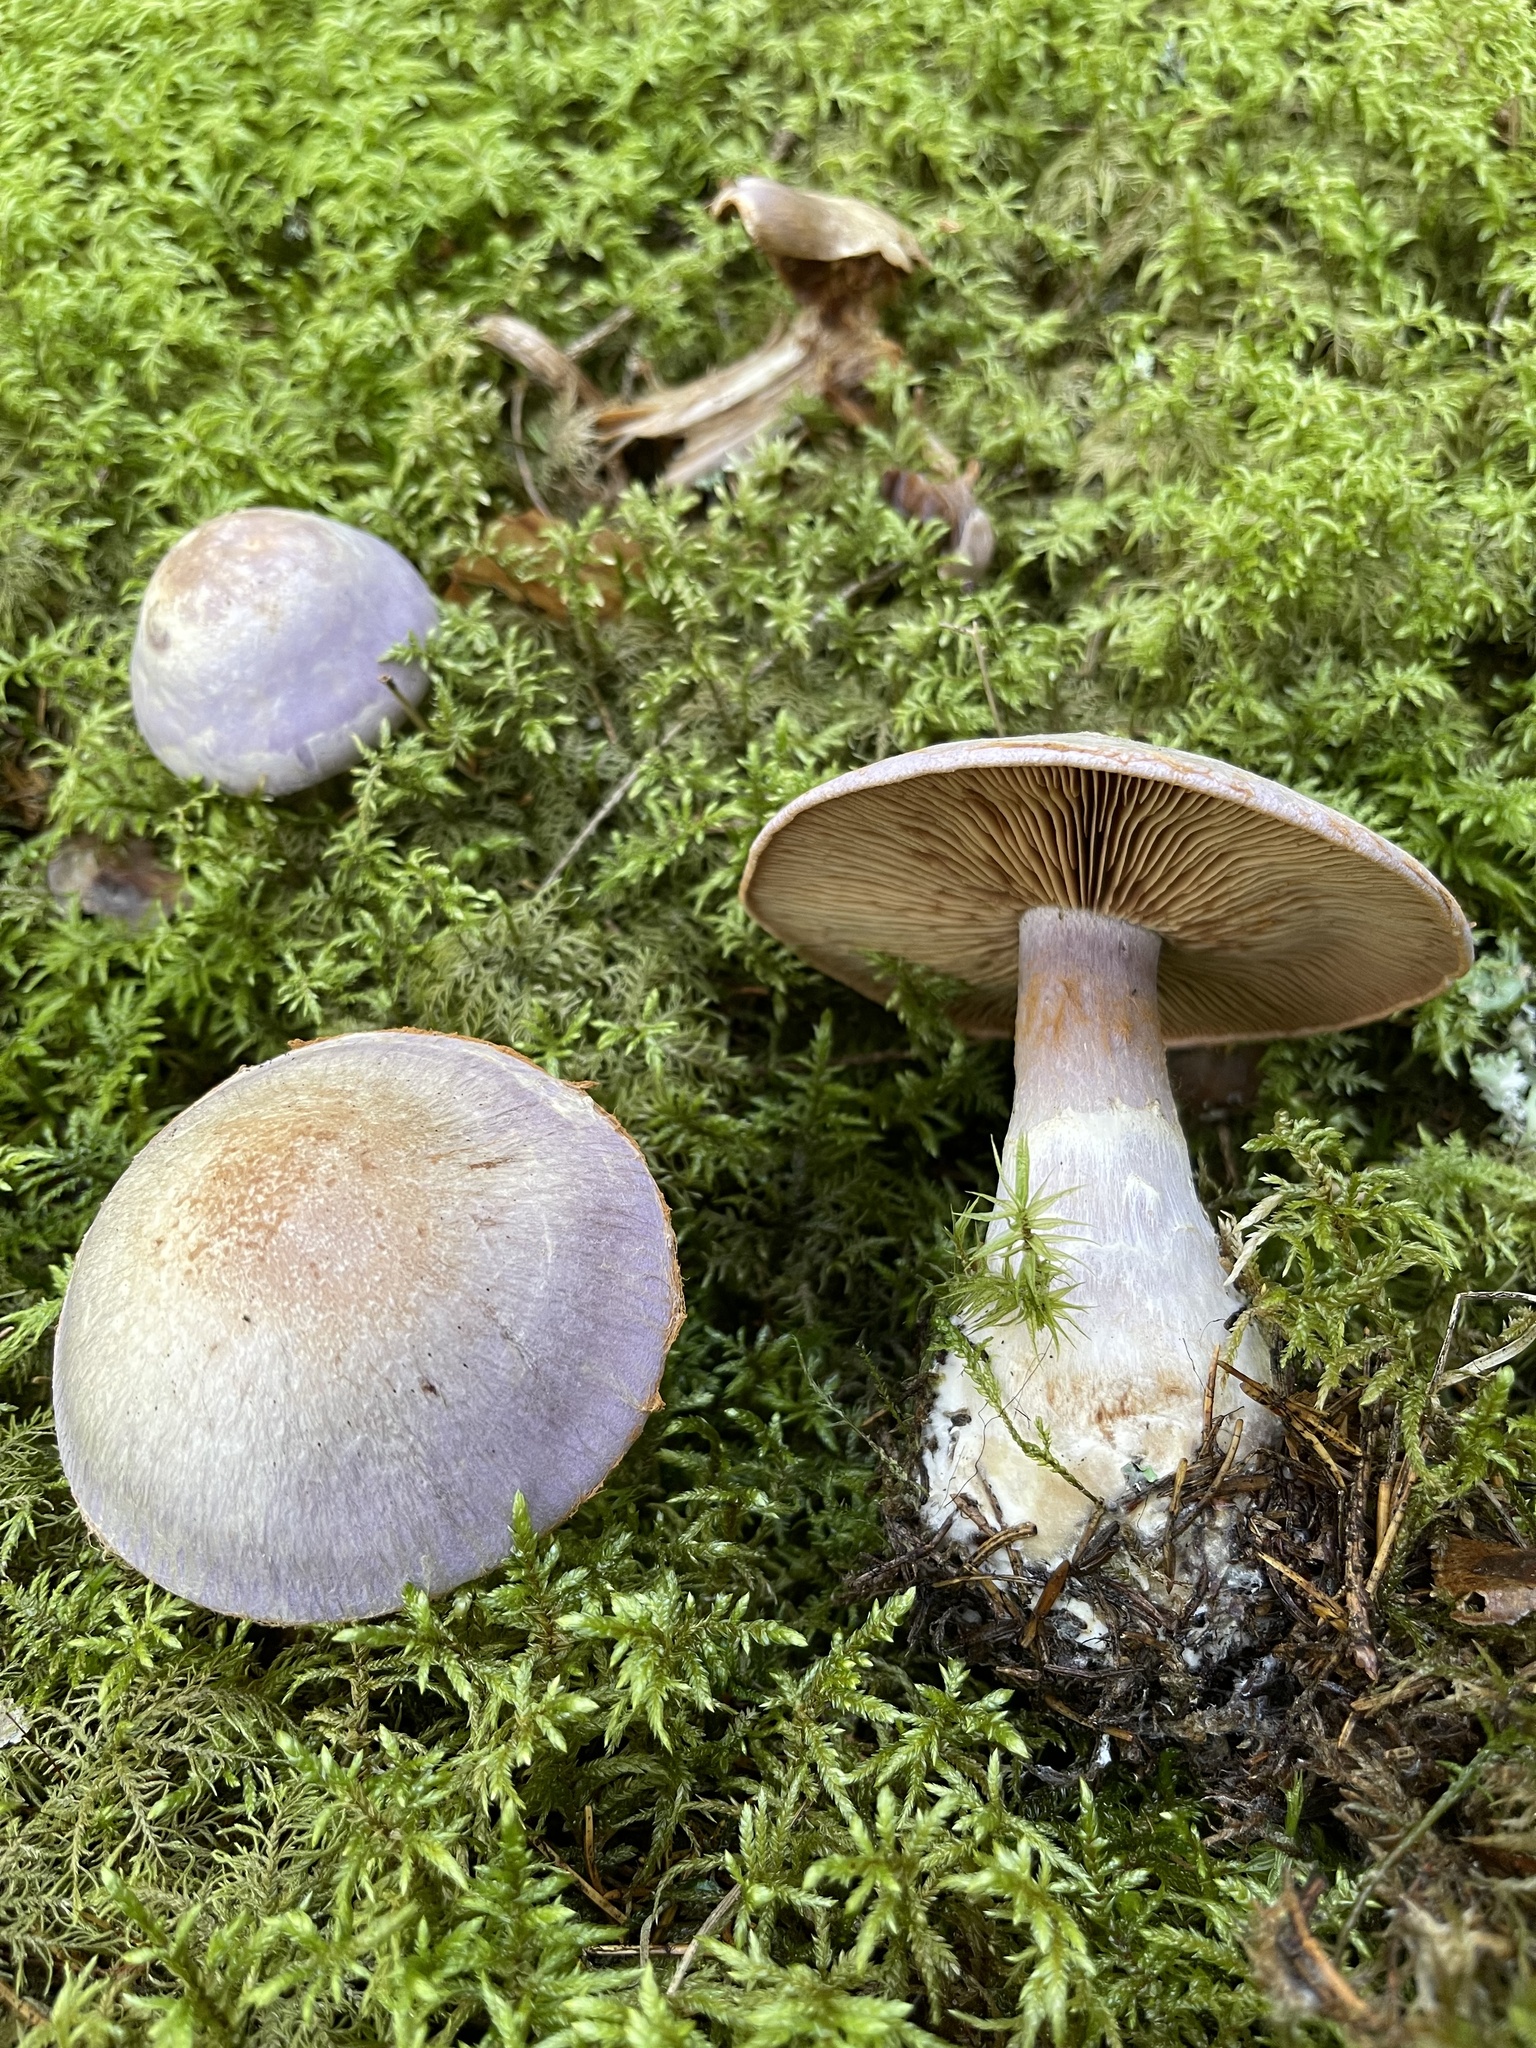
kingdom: Fungi
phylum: Basidiomycota
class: Agaricomycetes
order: Agaricales
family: Cortinariaceae
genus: Cortinarius
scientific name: Cortinarius traganus
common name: Gassy webcap
